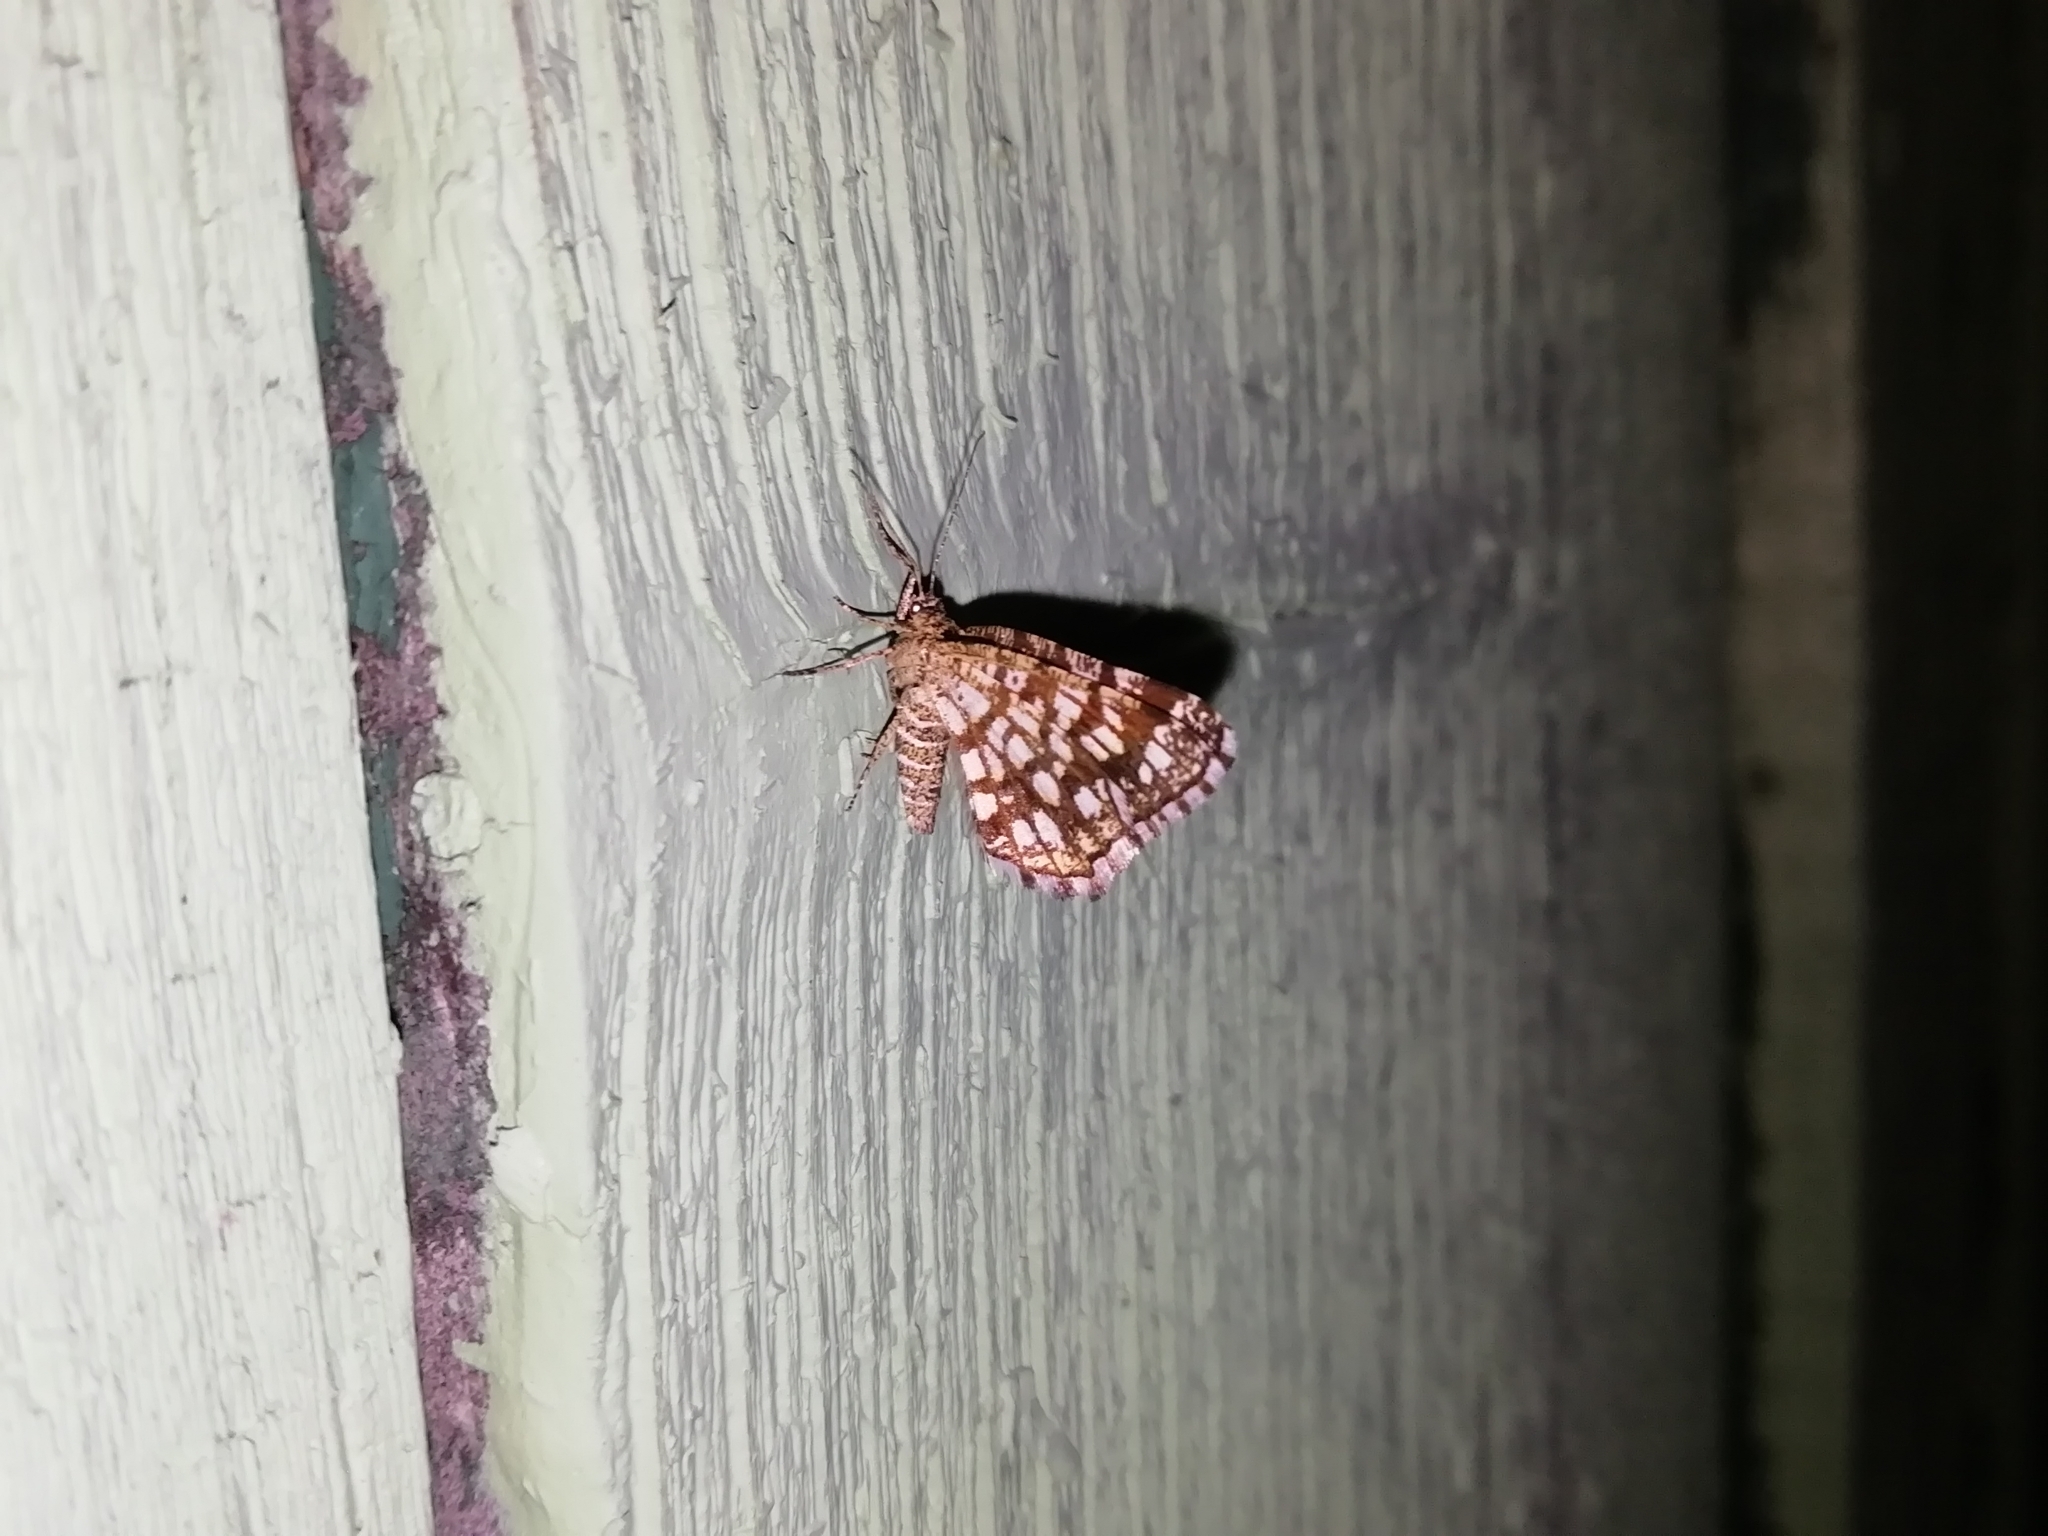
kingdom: Animalia
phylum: Arthropoda
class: Insecta
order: Lepidoptera
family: Geometridae
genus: Chiasmia
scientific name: Chiasmia clathrata
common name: Latticed heath
